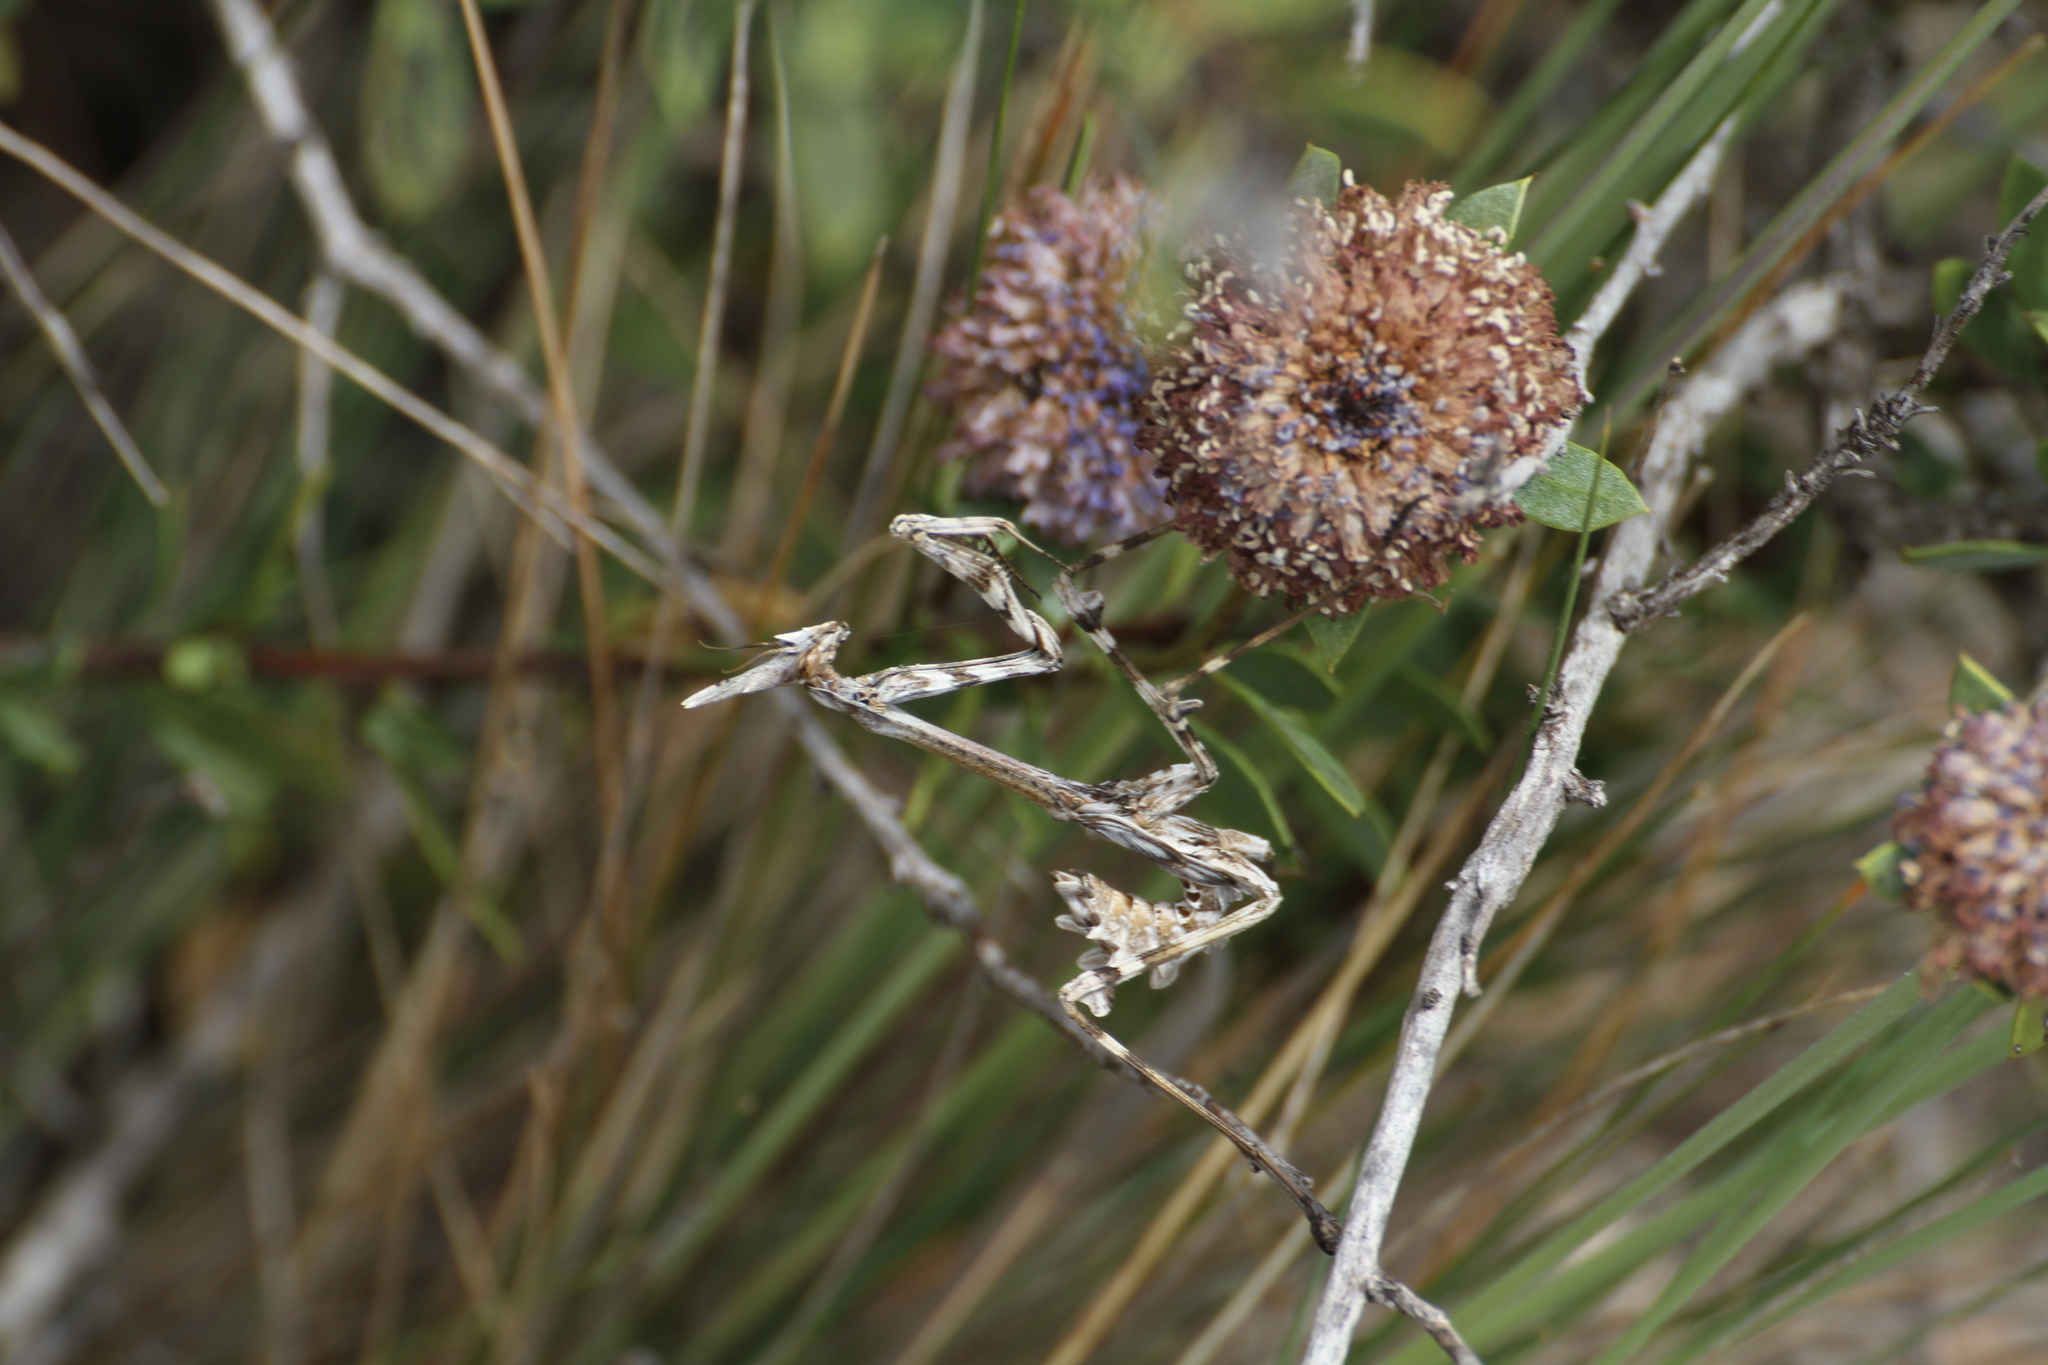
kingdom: Animalia
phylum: Arthropoda
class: Insecta
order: Mantodea
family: Empusidae
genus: Empusa
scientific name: Empusa pennata
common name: Conehead mantis
